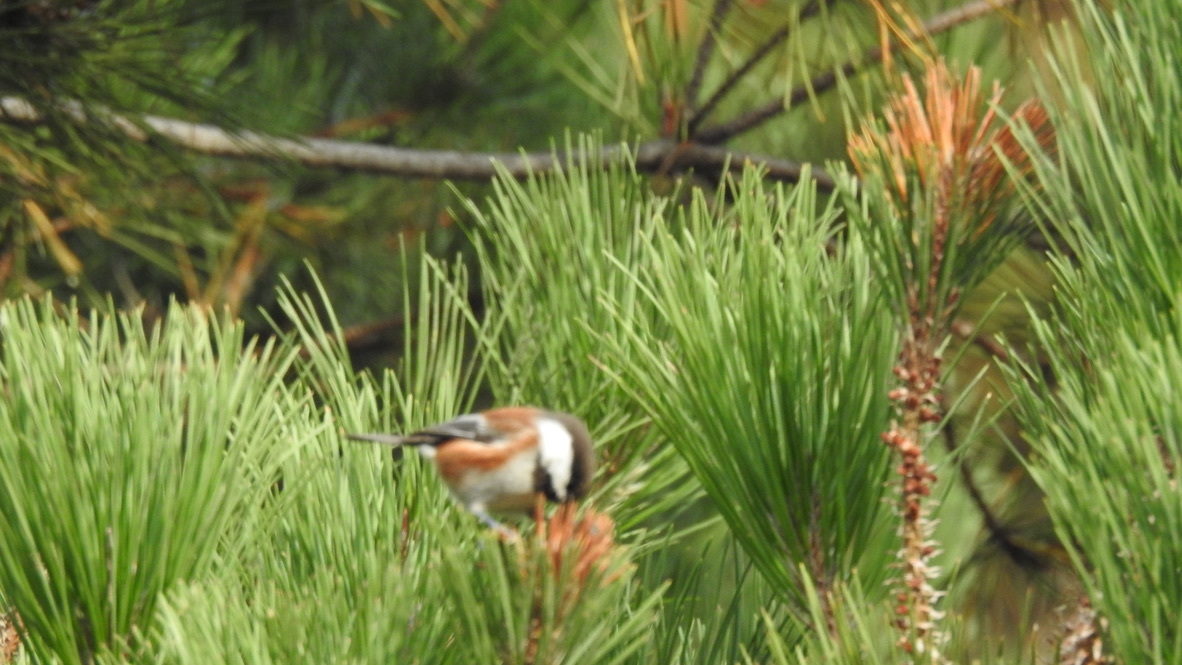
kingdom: Animalia
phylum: Chordata
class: Aves
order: Passeriformes
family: Paridae
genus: Poecile
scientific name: Poecile rufescens
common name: Chestnut-backed chickadee
